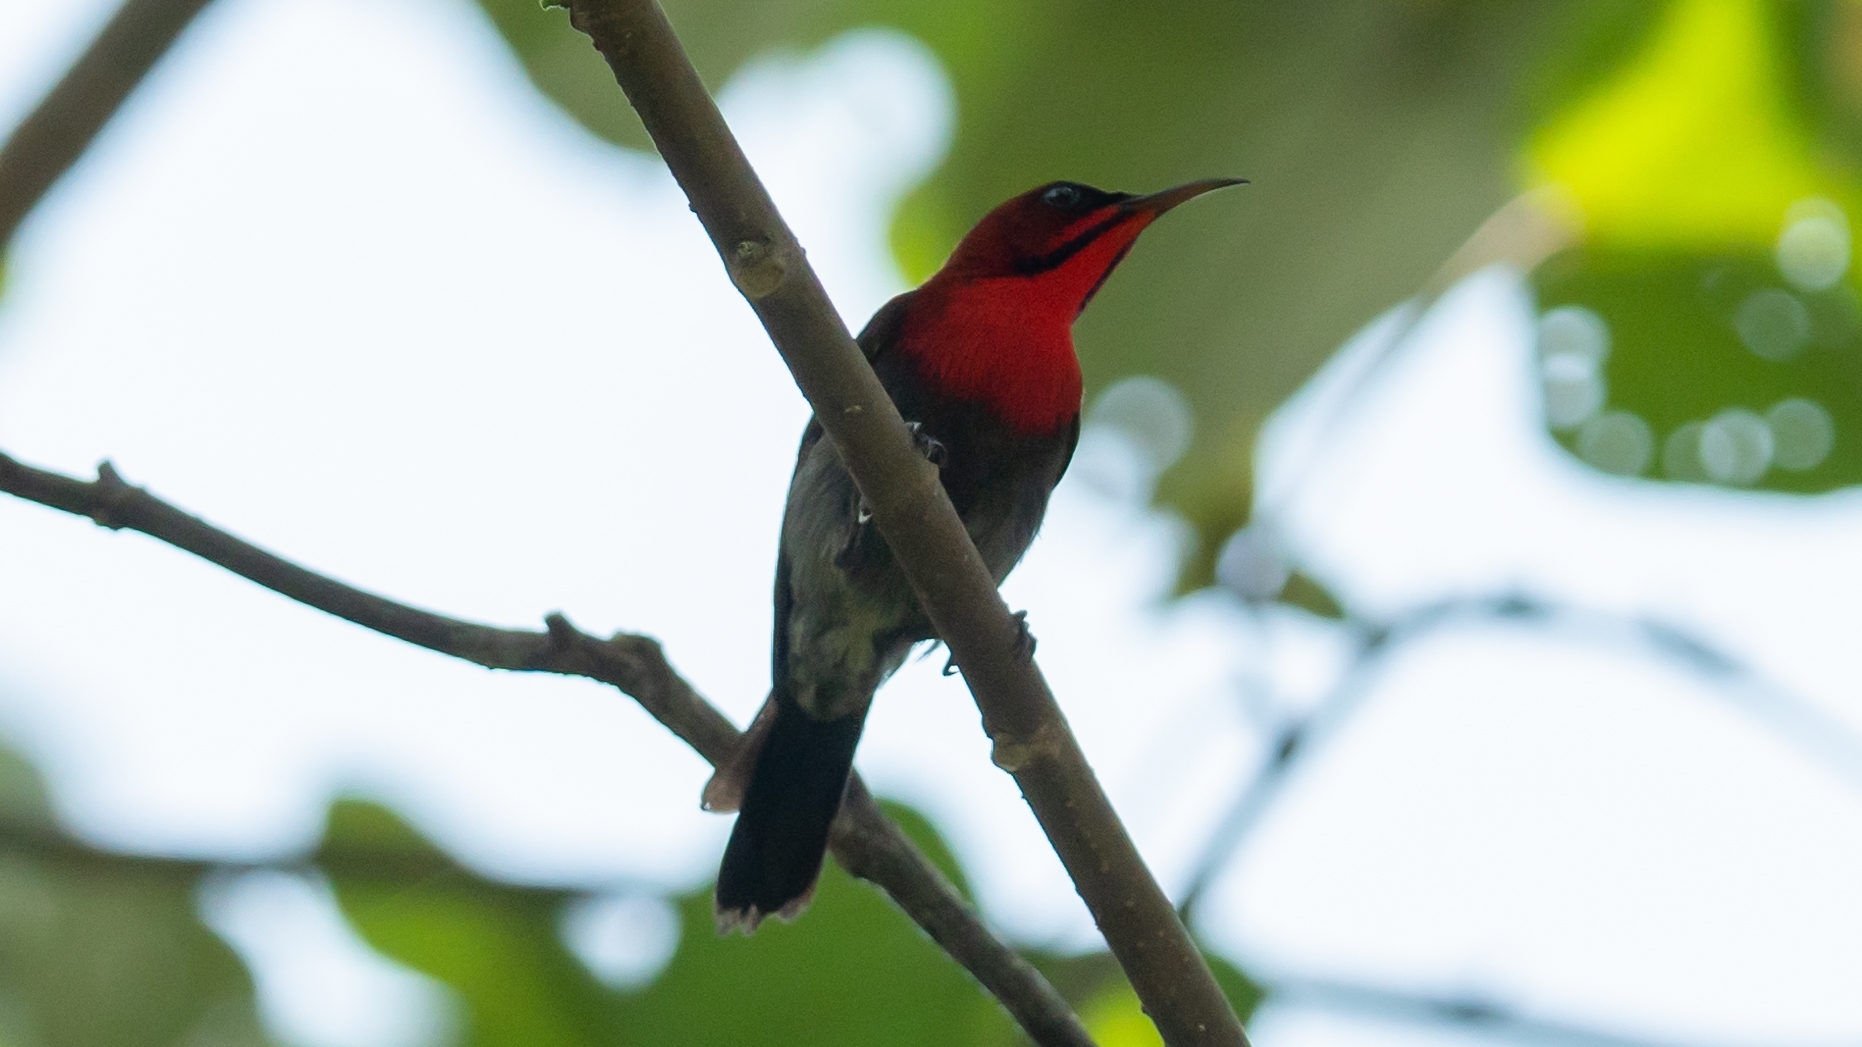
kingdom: Animalia
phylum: Chordata
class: Aves
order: Passeriformes
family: Nectariniidae
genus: Aethopyga
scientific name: Aethopyga siparaja
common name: Crimson sunbird
